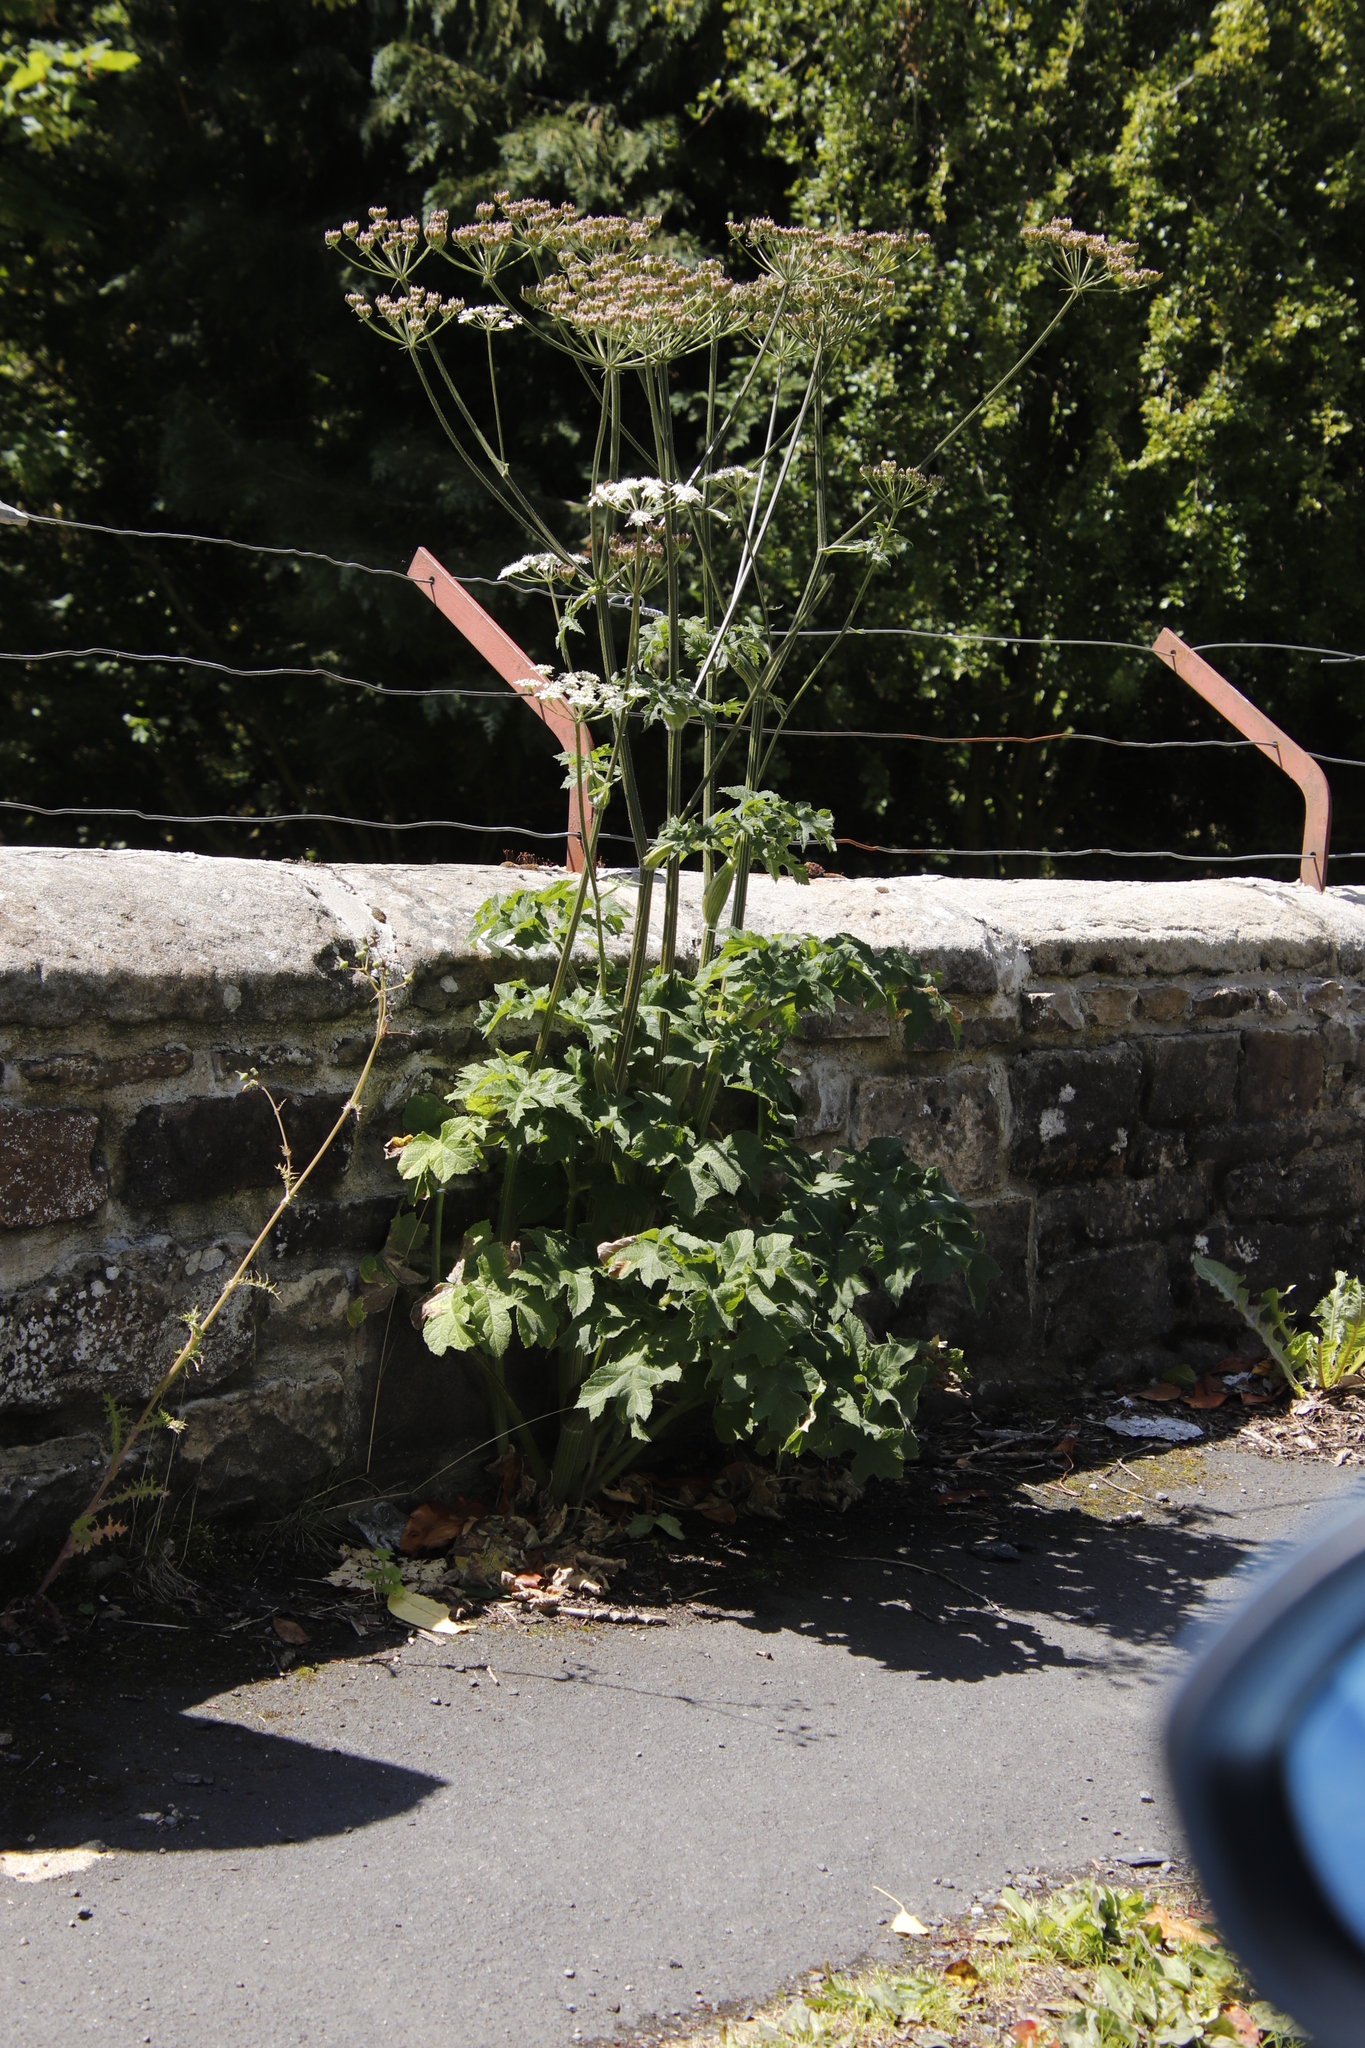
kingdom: Plantae
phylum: Tracheophyta
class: Magnoliopsida
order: Apiales
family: Apiaceae
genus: Heracleum
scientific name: Heracleum sphondylium
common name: Hogweed
